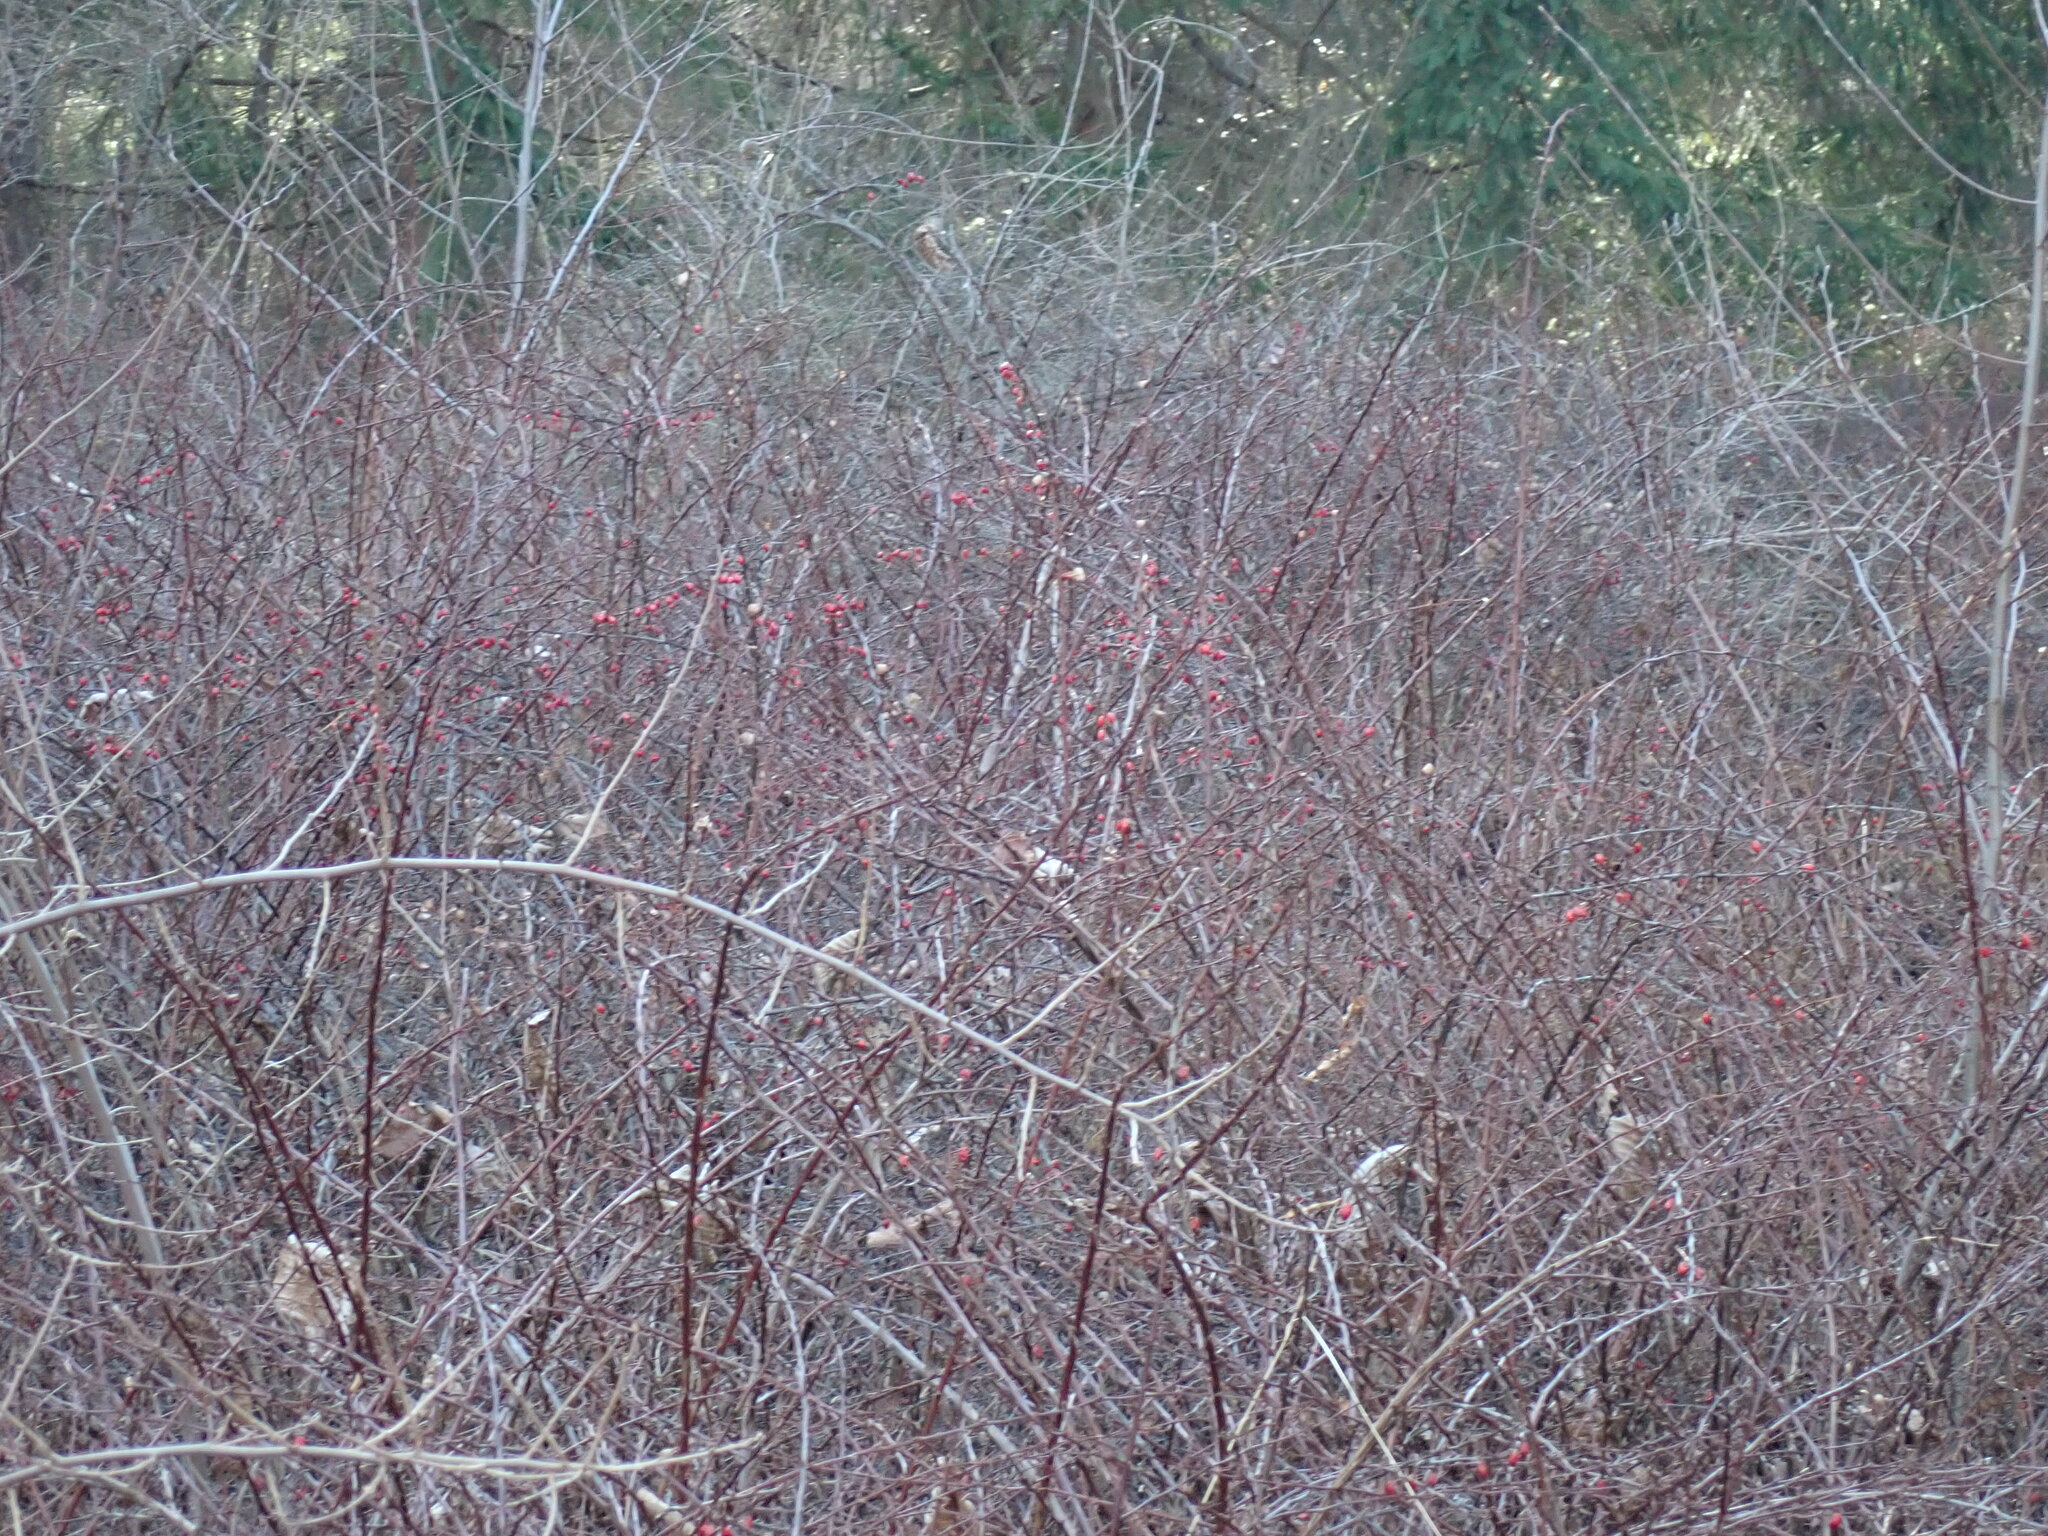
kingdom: Plantae
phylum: Tracheophyta
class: Magnoliopsida
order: Ranunculales
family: Berberidaceae
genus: Berberis
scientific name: Berberis thunbergii
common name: Japanese barberry
